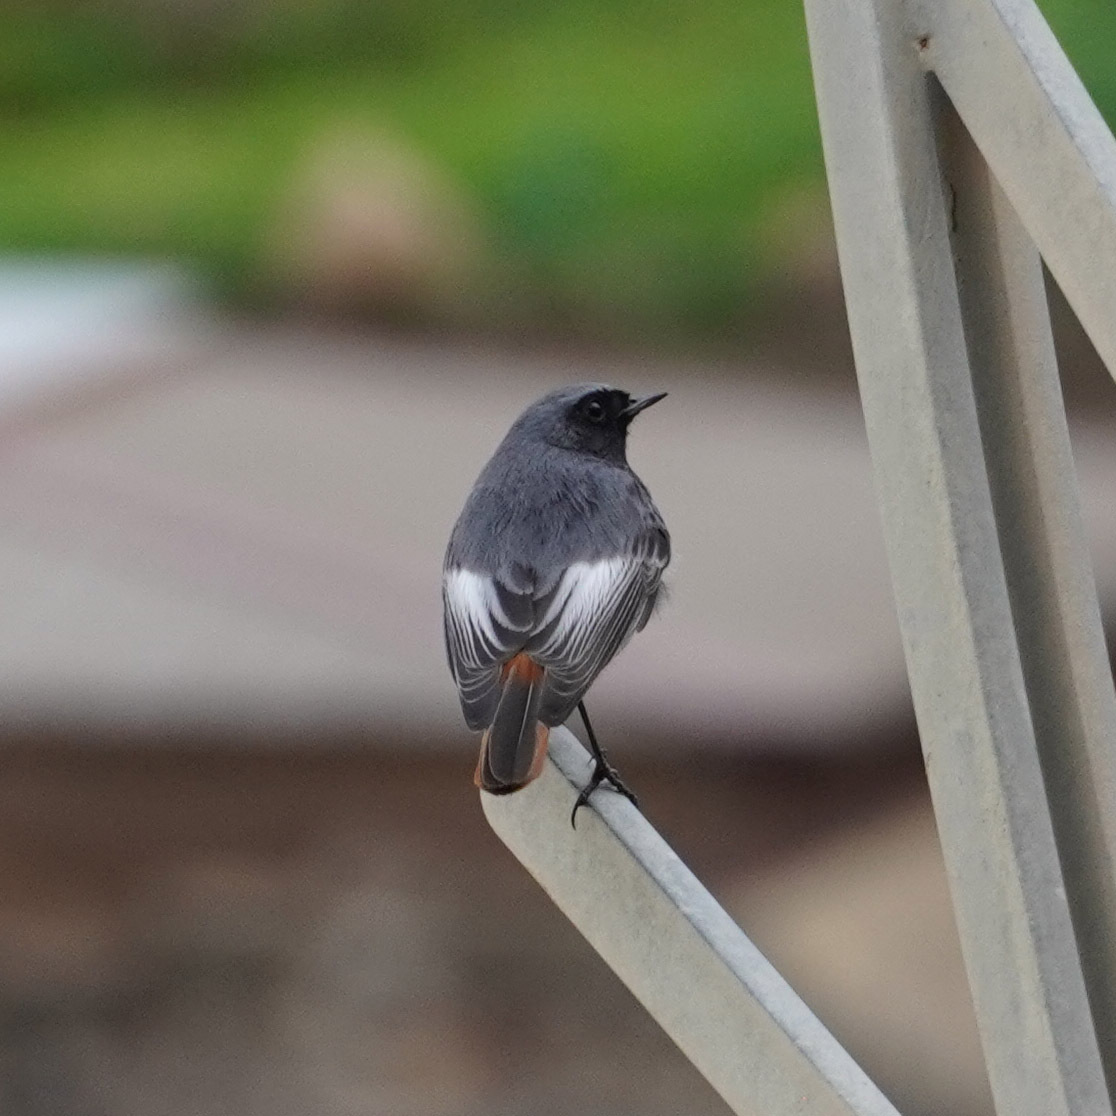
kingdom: Animalia
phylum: Chordata
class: Aves
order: Passeriformes
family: Muscicapidae
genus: Phoenicurus
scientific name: Phoenicurus ochruros
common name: Black redstart
